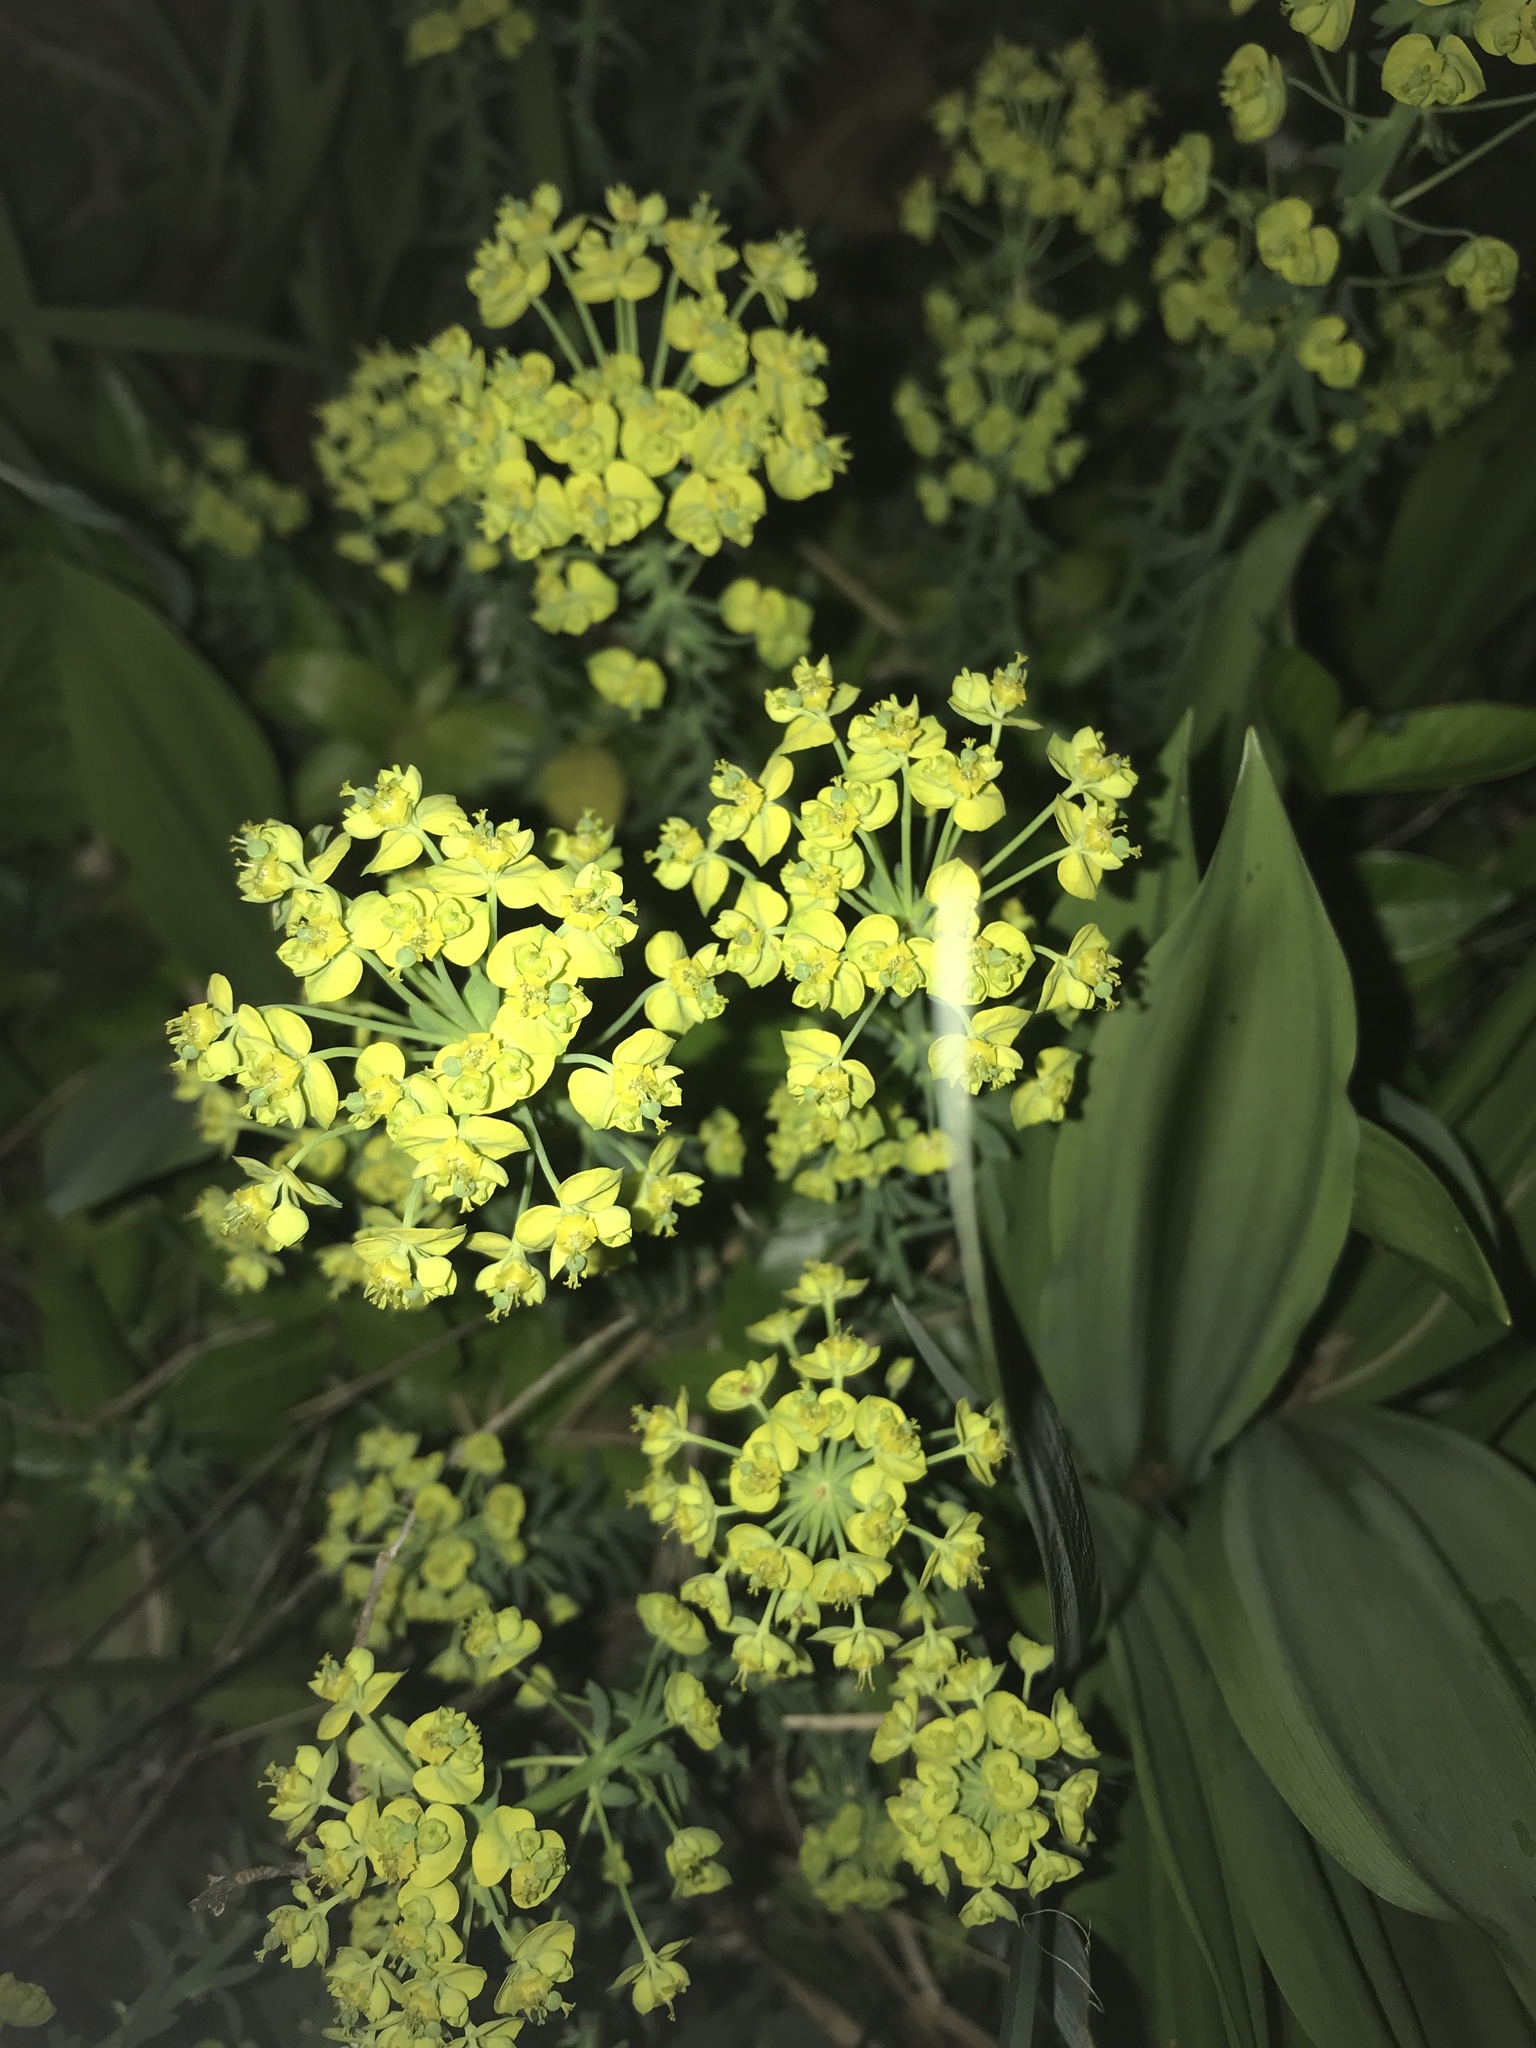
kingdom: Plantae
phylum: Tracheophyta
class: Magnoliopsida
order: Malpighiales
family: Euphorbiaceae
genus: Euphorbia
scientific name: Euphorbia cyparissias
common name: Cypress spurge
